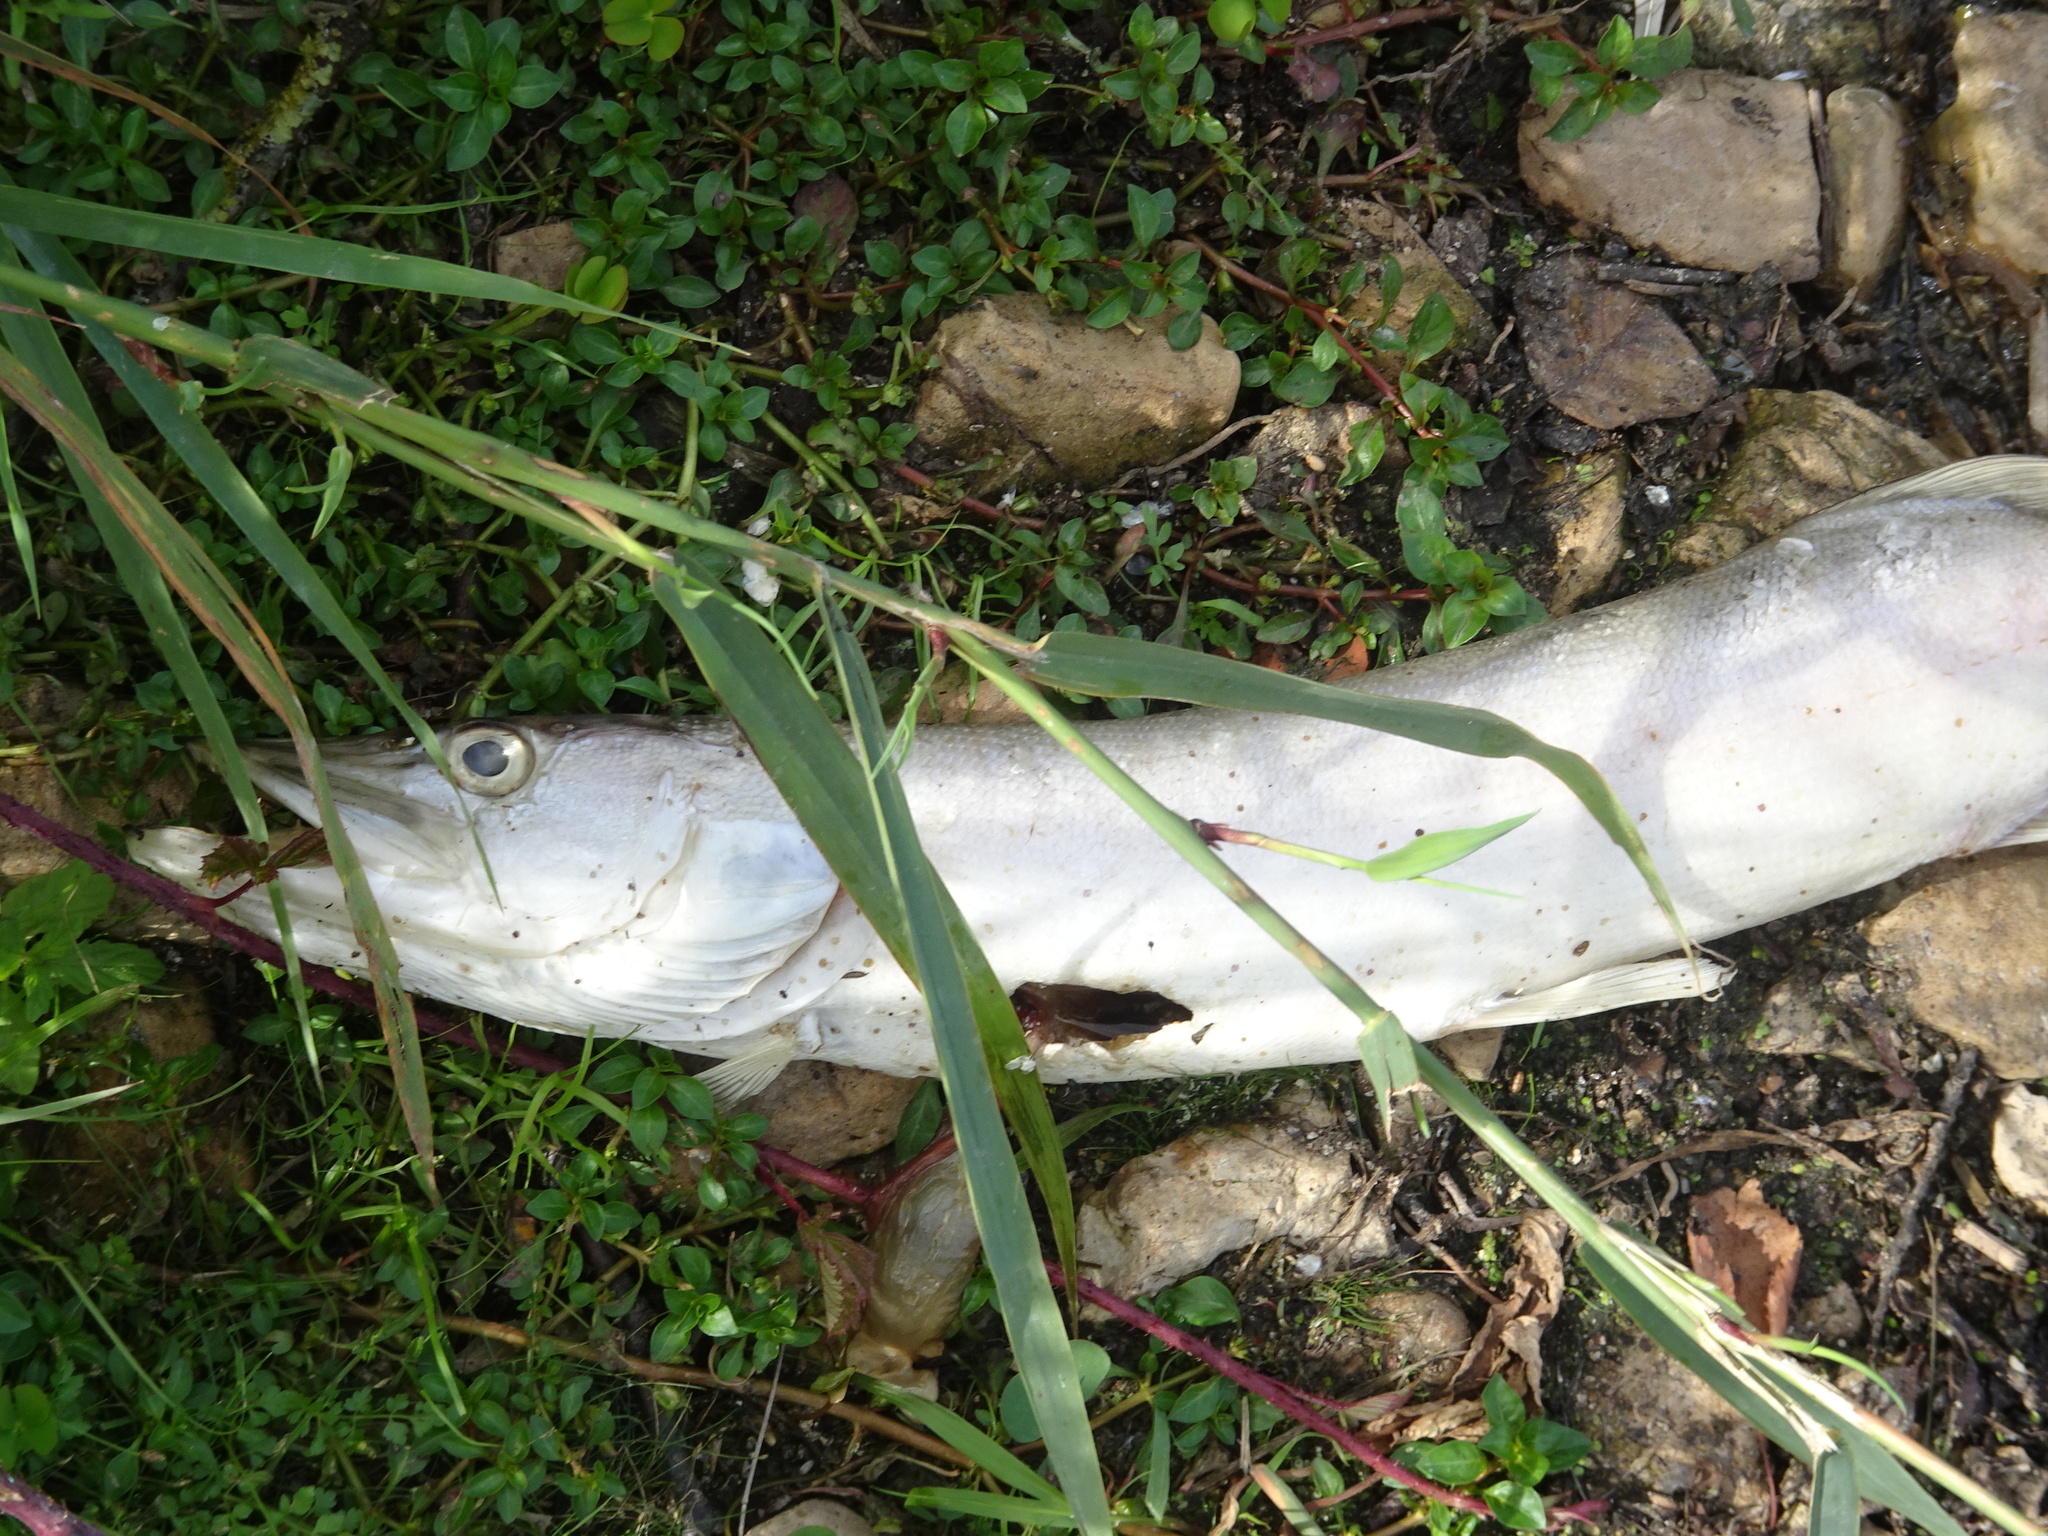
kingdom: Animalia
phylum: Chordata
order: Esociformes
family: Esocidae
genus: Esox
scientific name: Esox lucius
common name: Northern pike
